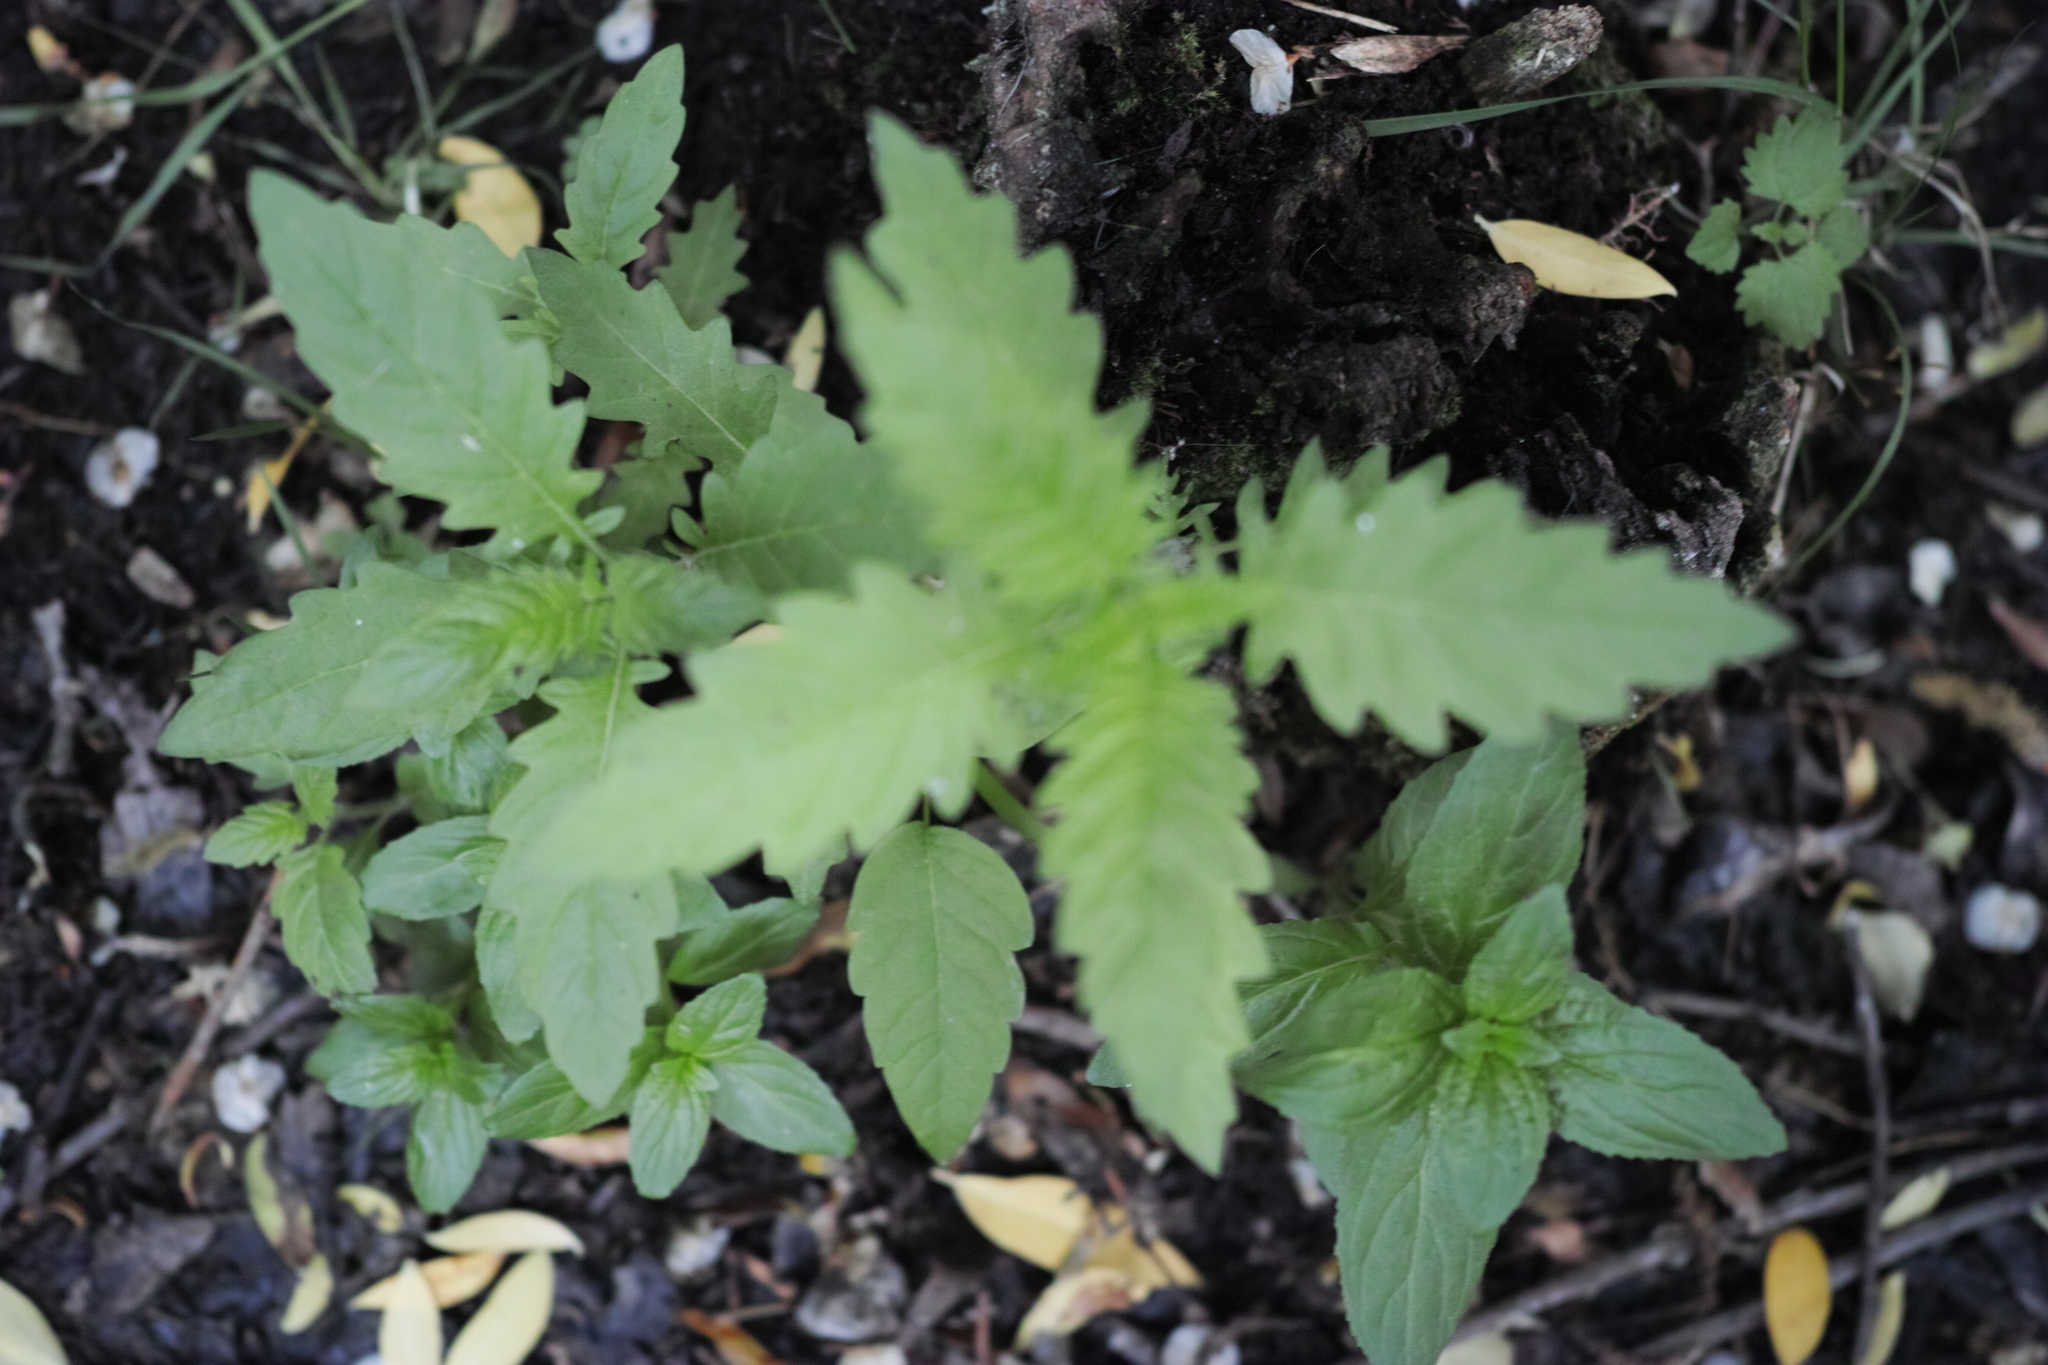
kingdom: Plantae
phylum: Tracheophyta
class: Magnoliopsida
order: Lamiales
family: Lamiaceae
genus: Lycopus
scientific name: Lycopus europaeus
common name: European bugleweed
